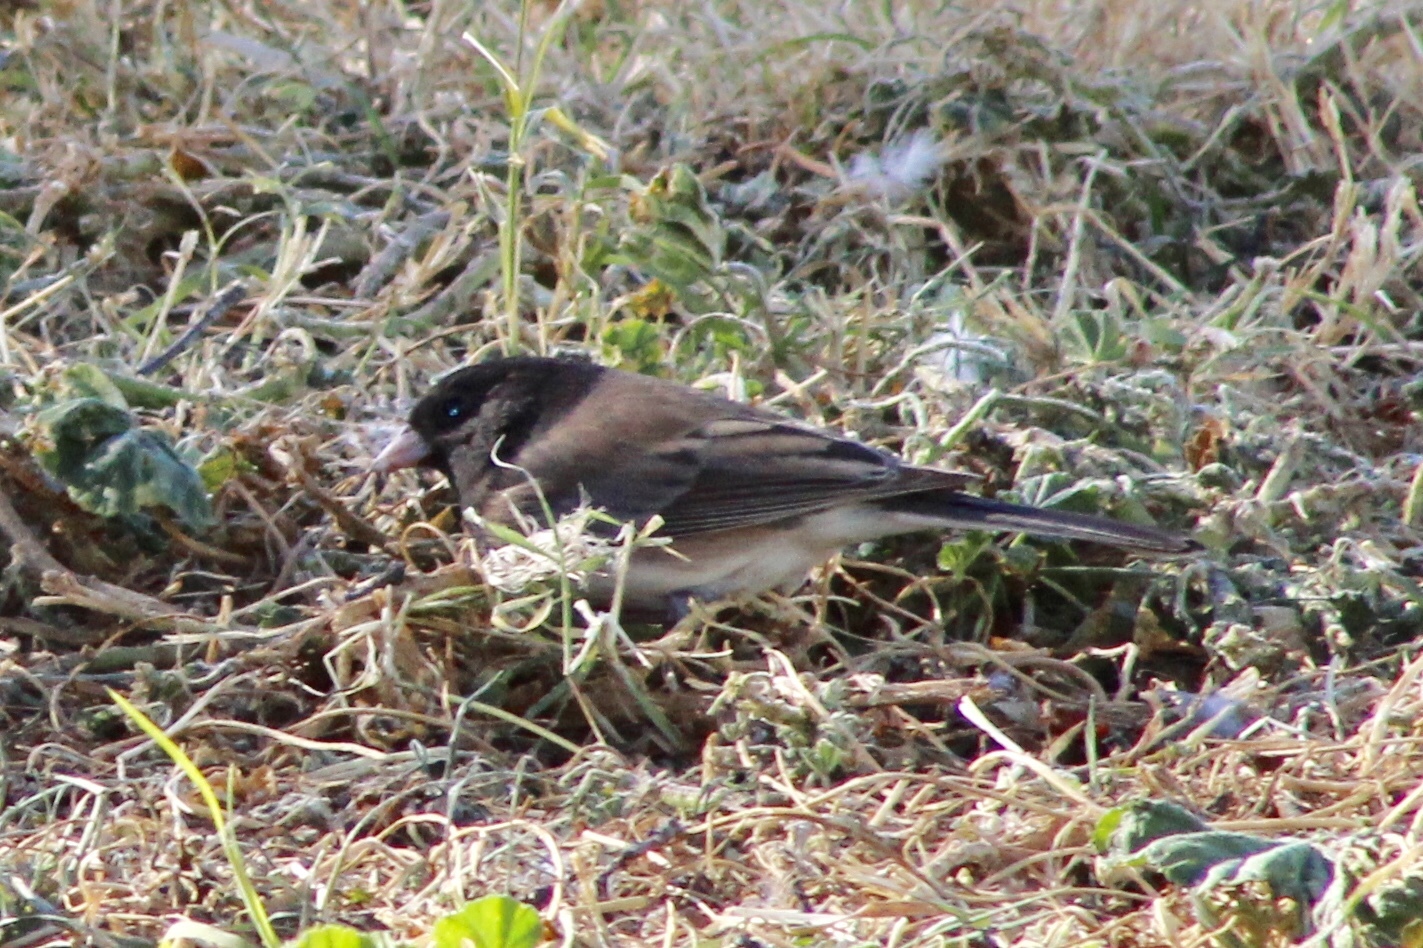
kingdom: Animalia
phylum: Chordata
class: Aves
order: Passeriformes
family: Passerellidae
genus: Junco
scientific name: Junco hyemalis
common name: Dark-eyed junco
